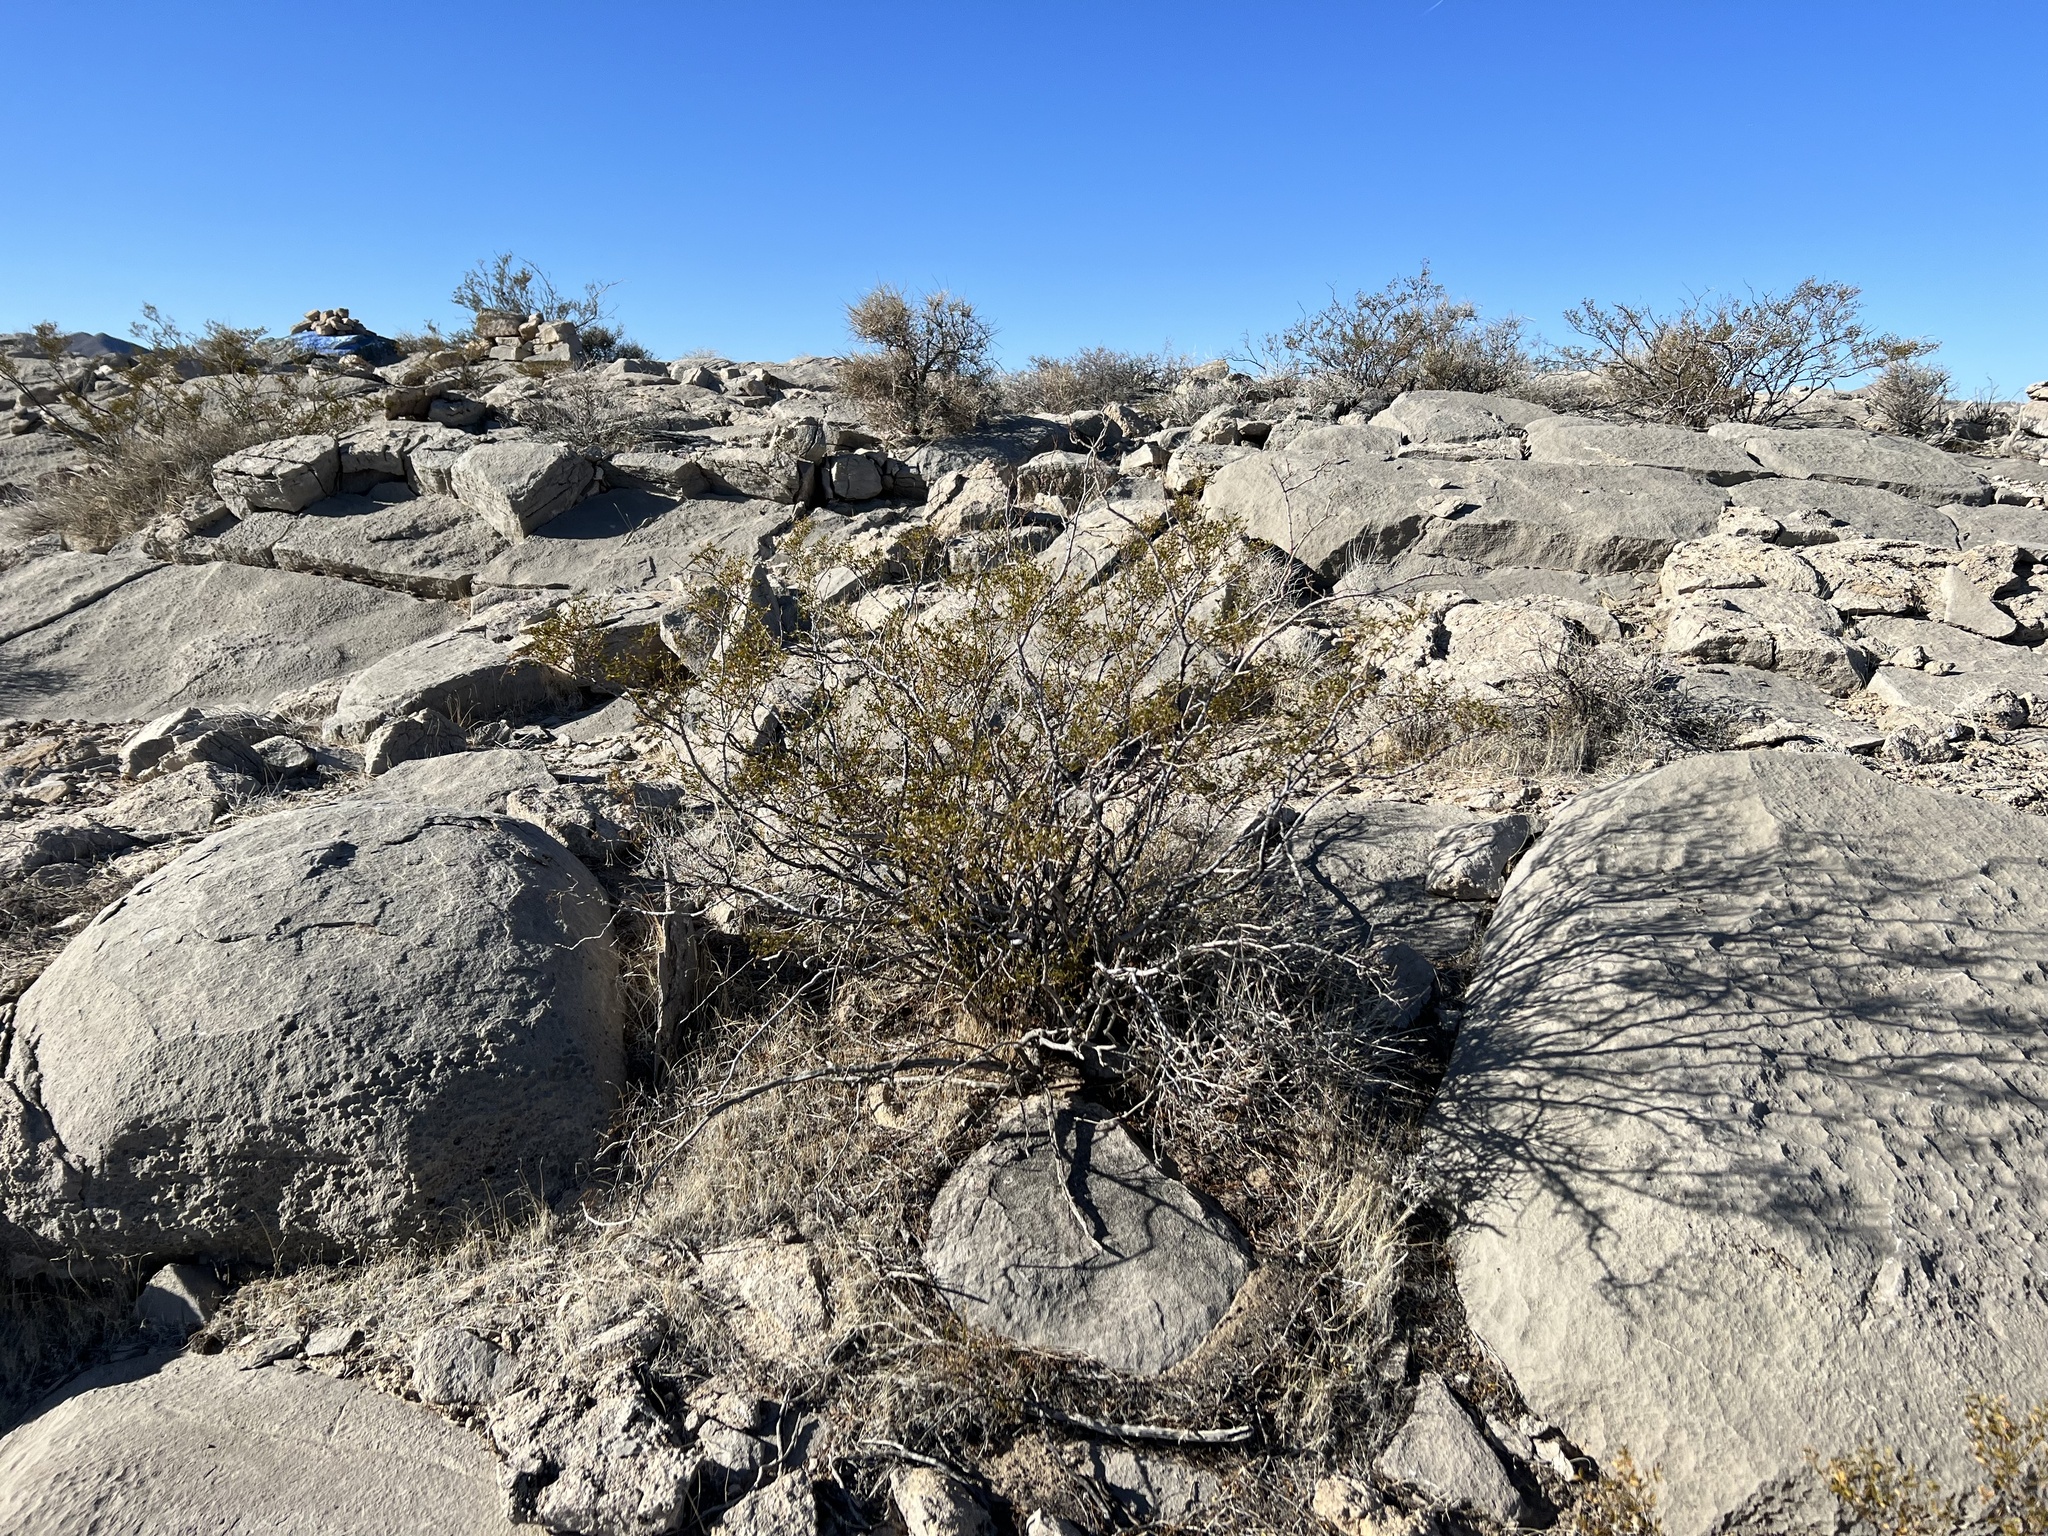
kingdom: Plantae
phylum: Tracheophyta
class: Magnoliopsida
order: Zygophyllales
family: Zygophyllaceae
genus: Larrea
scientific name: Larrea tridentata
